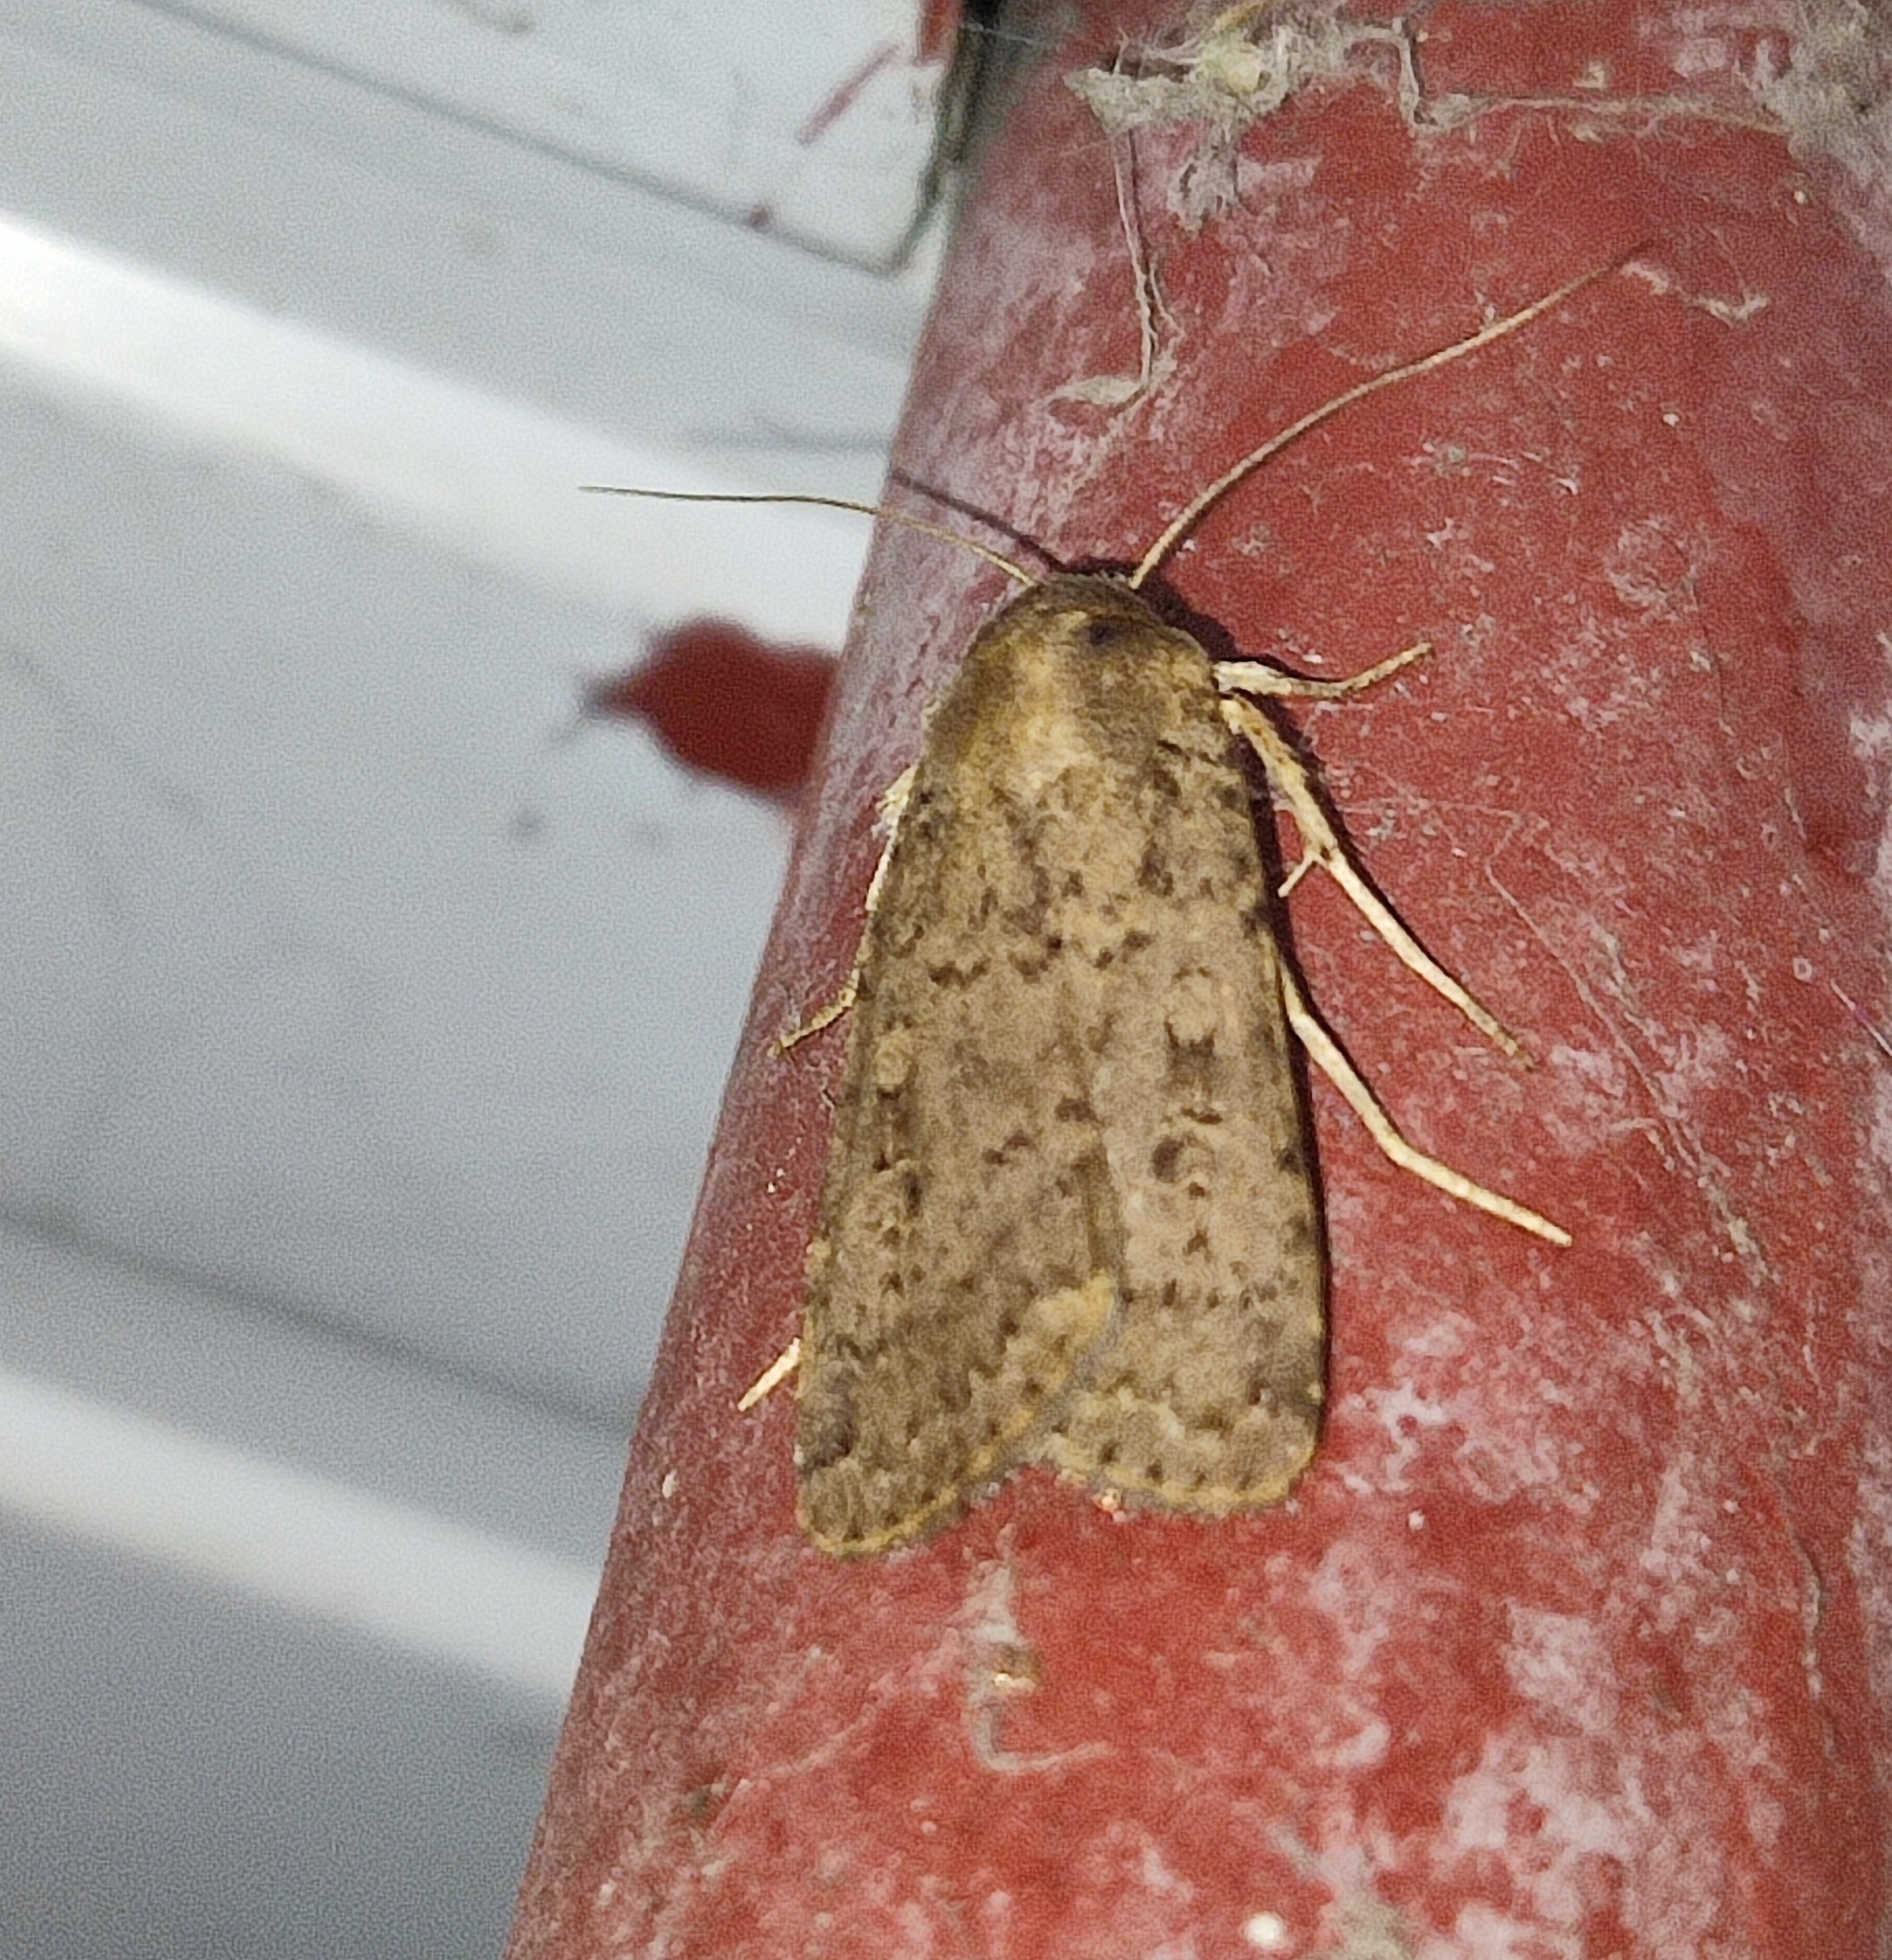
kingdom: Animalia
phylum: Arthropoda
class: Insecta
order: Lepidoptera
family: Noctuidae
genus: Rhyacia
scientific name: Rhyacia arenacea
